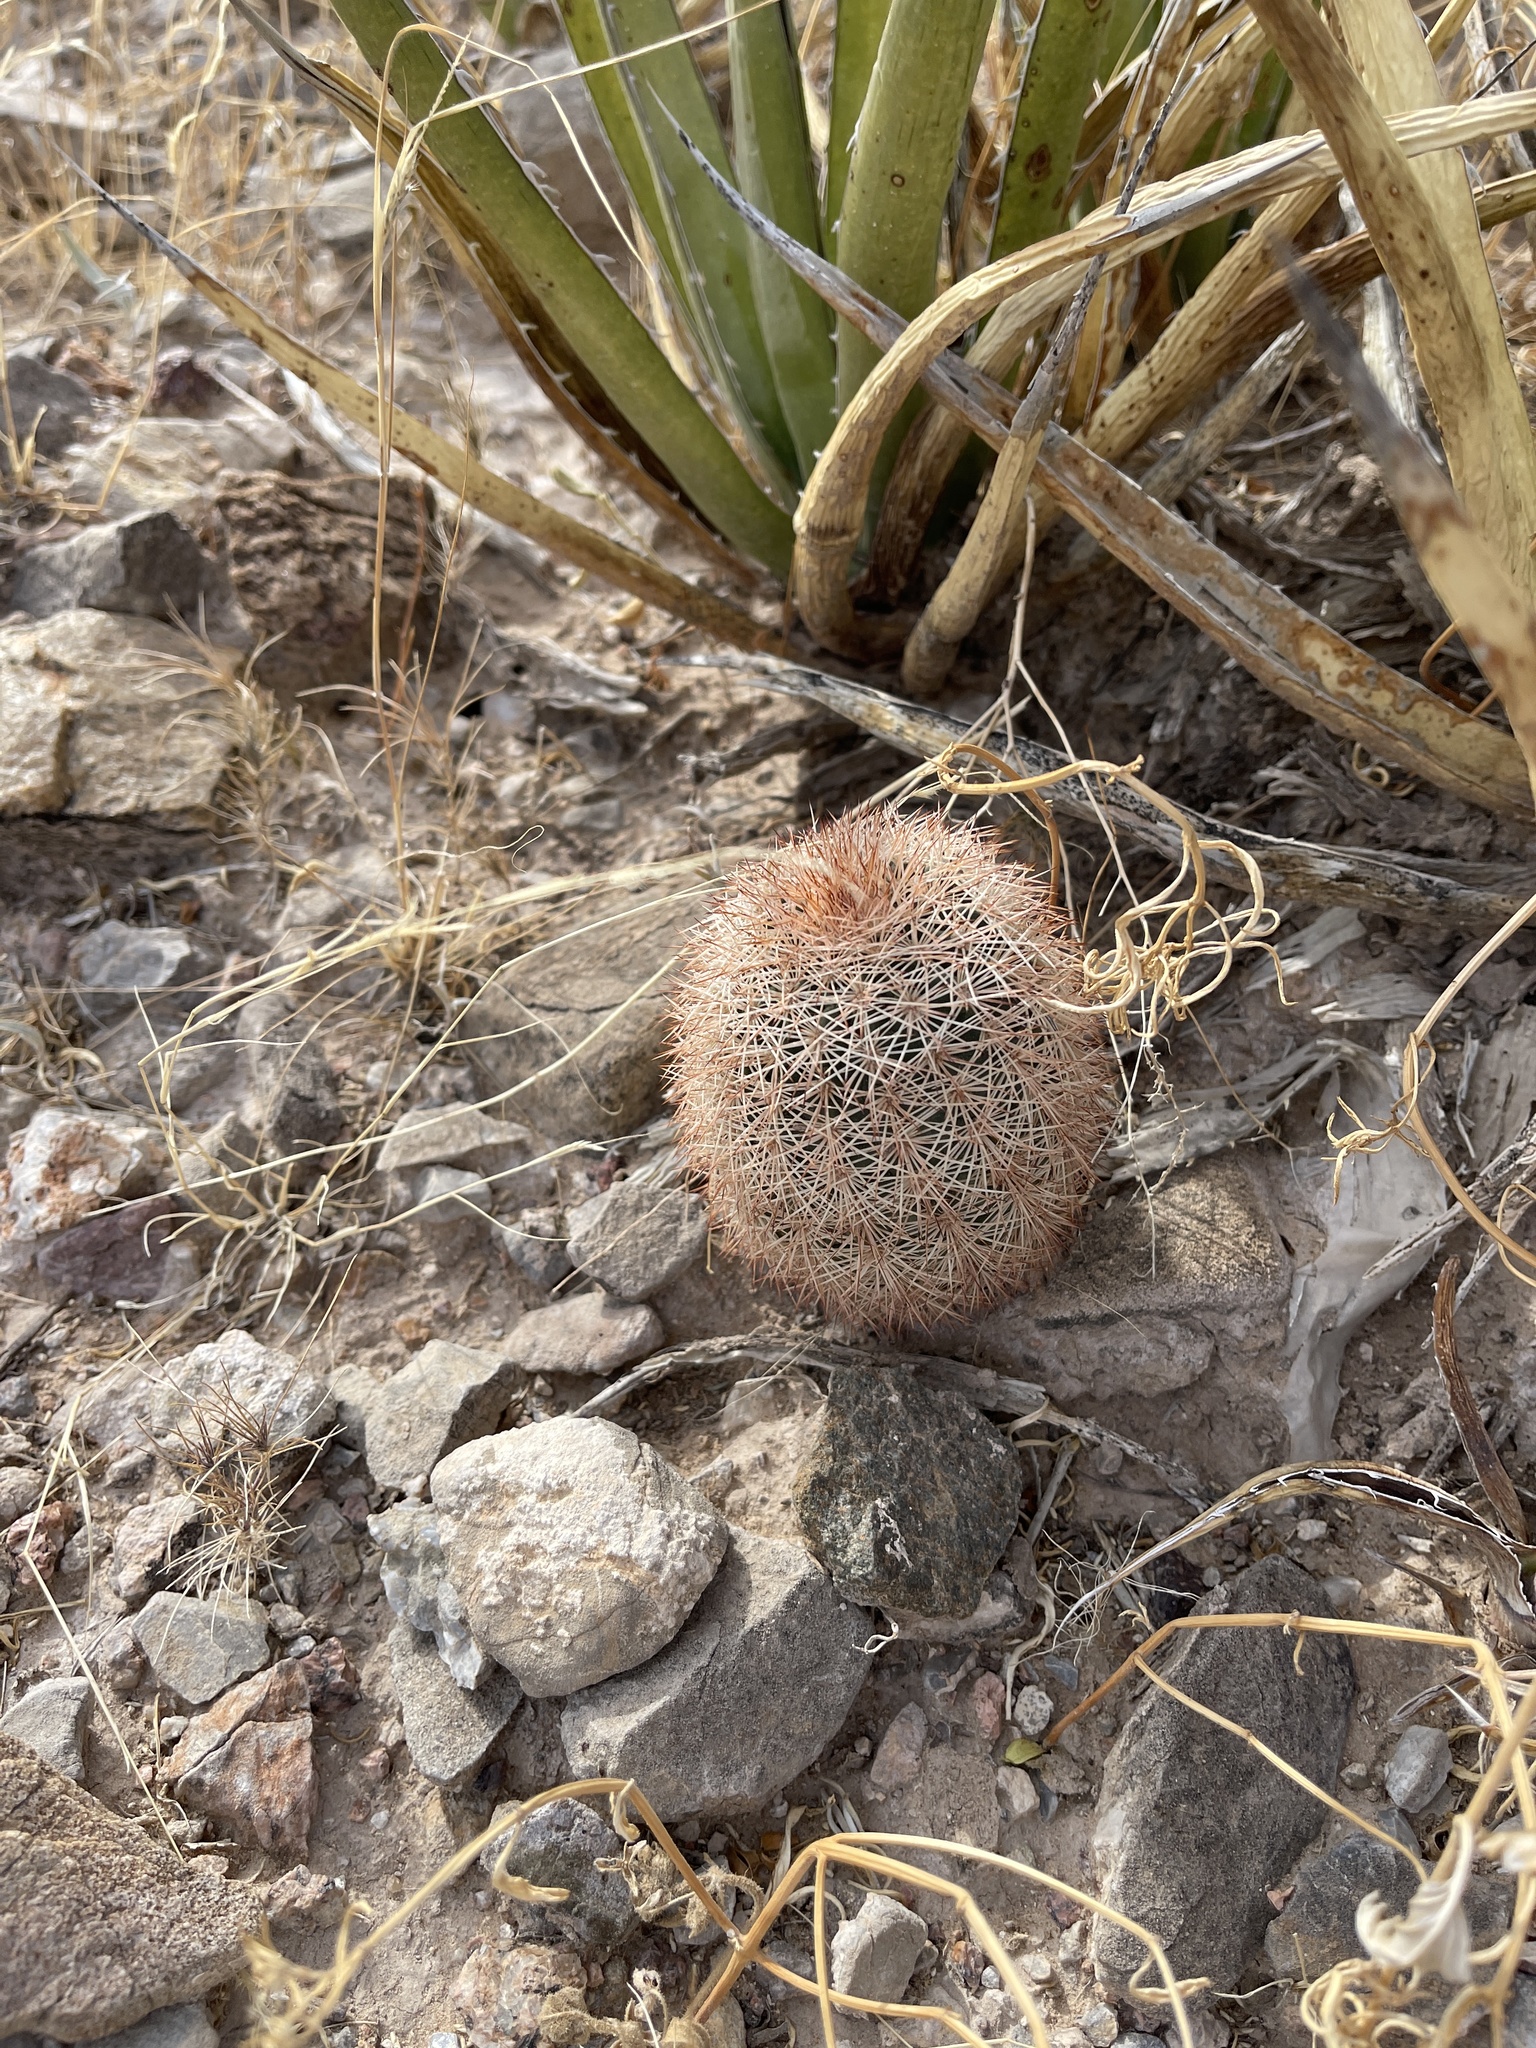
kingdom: Plantae
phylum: Tracheophyta
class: Magnoliopsida
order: Caryophyllales
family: Cactaceae
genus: Echinocereus
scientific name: Echinocereus dasyacanthus
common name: Spiny hedgehog cactus
